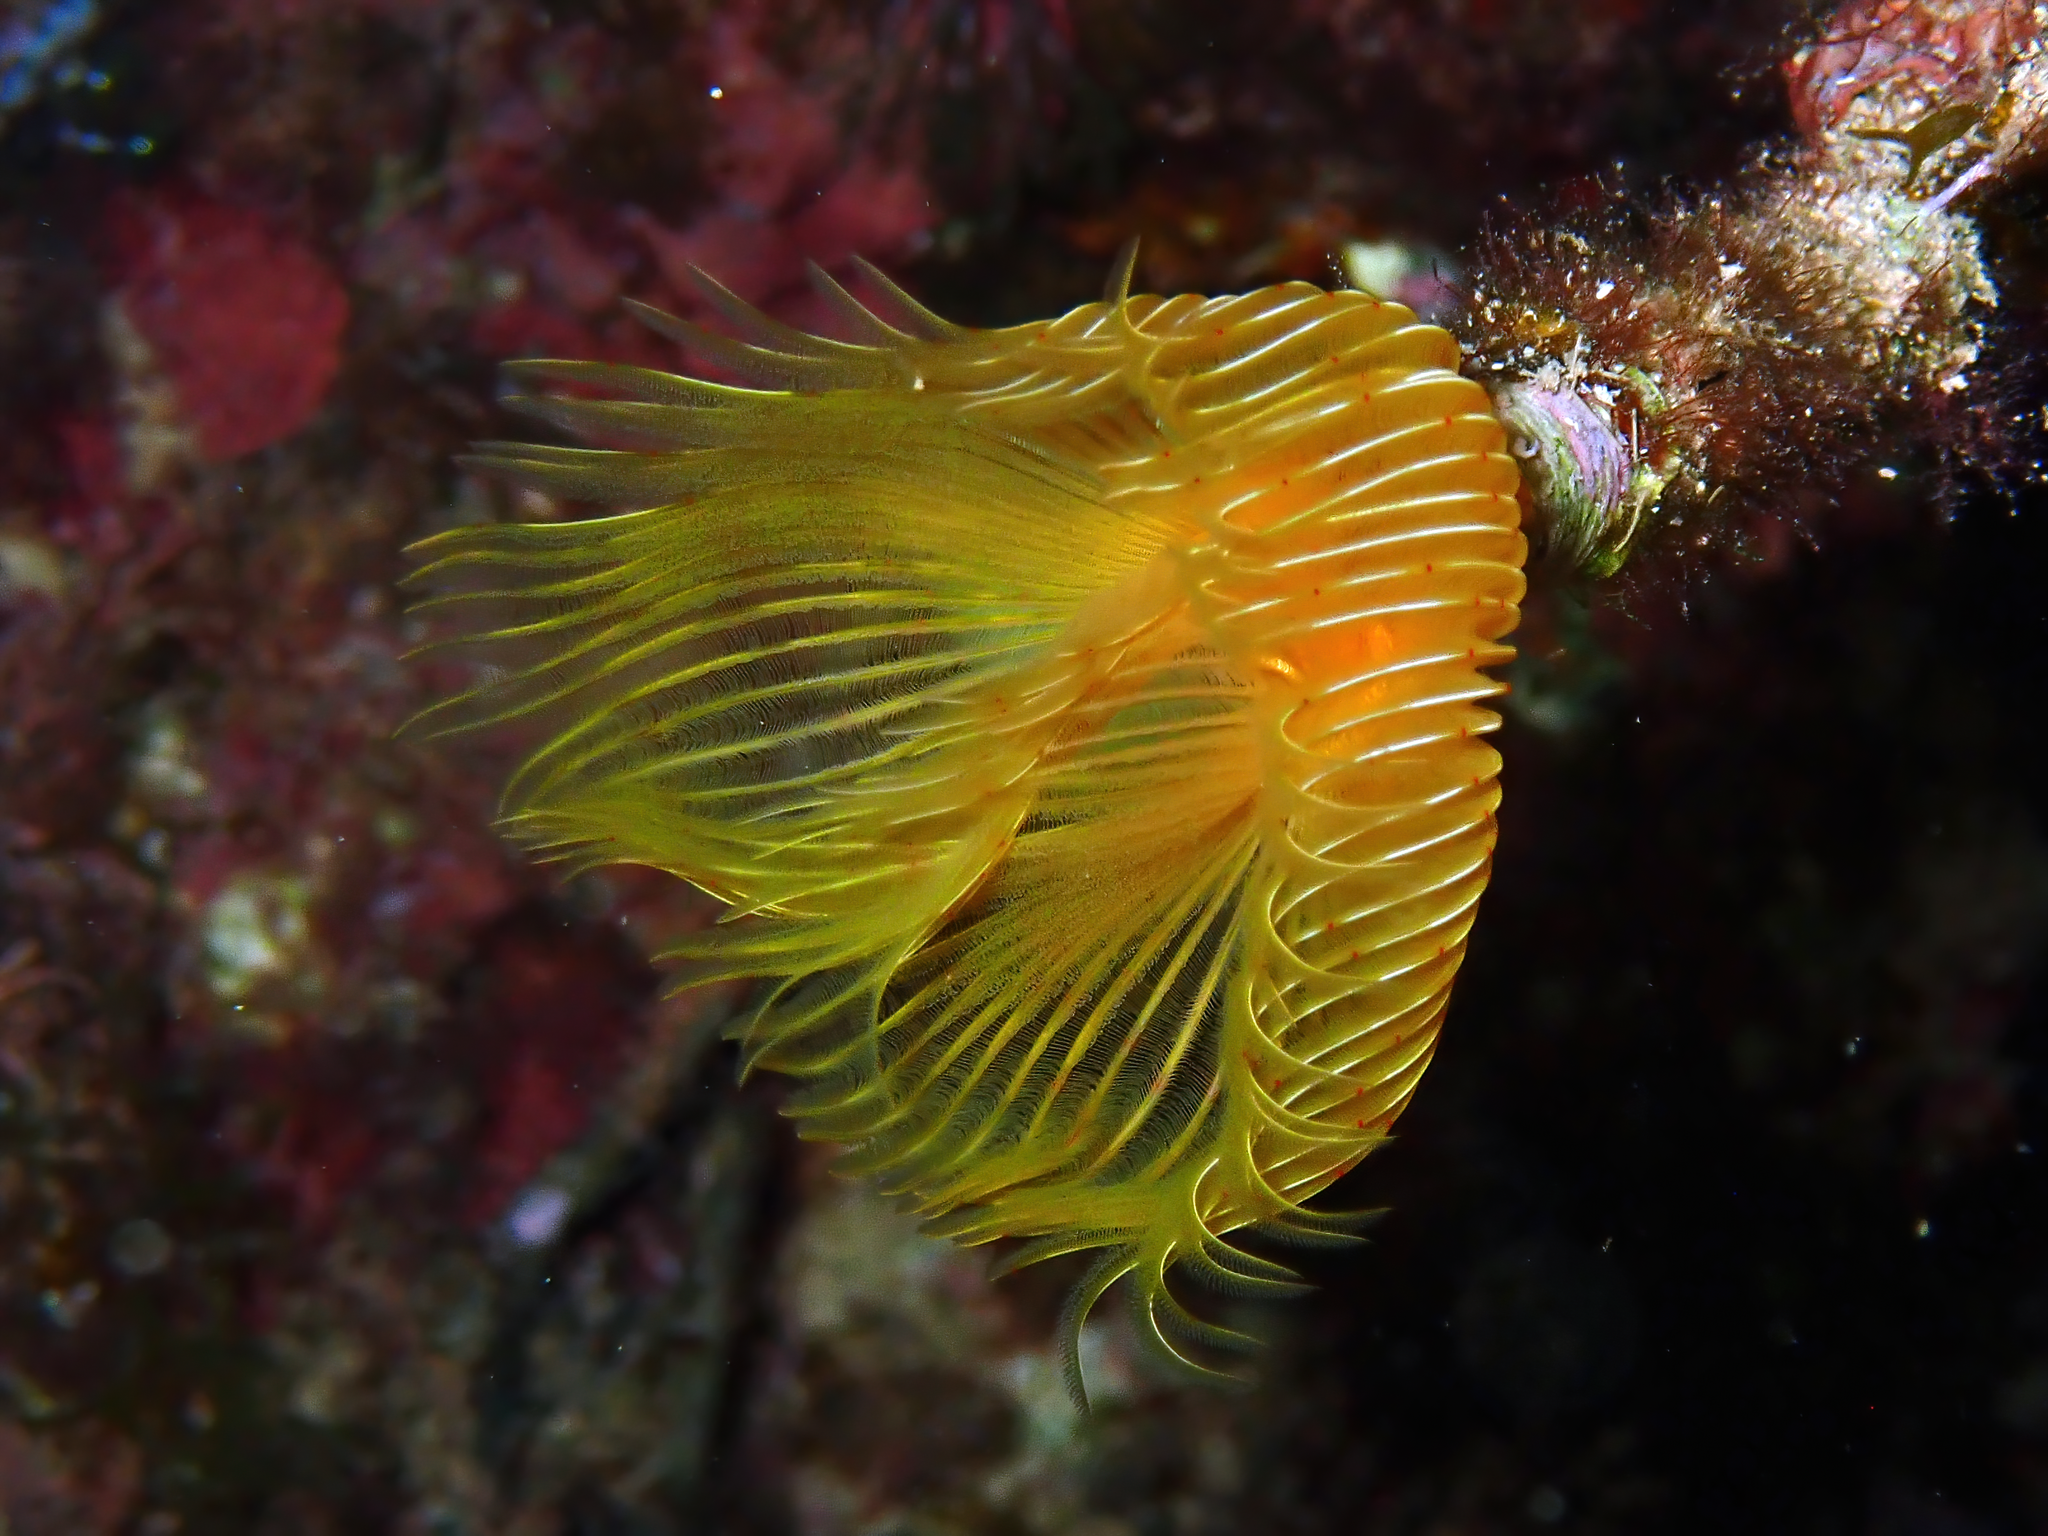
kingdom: Animalia
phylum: Annelida
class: Polychaeta
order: Sabellida
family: Serpulidae
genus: Protula
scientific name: Protula tubularia
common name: Red-spotted horseshoe
